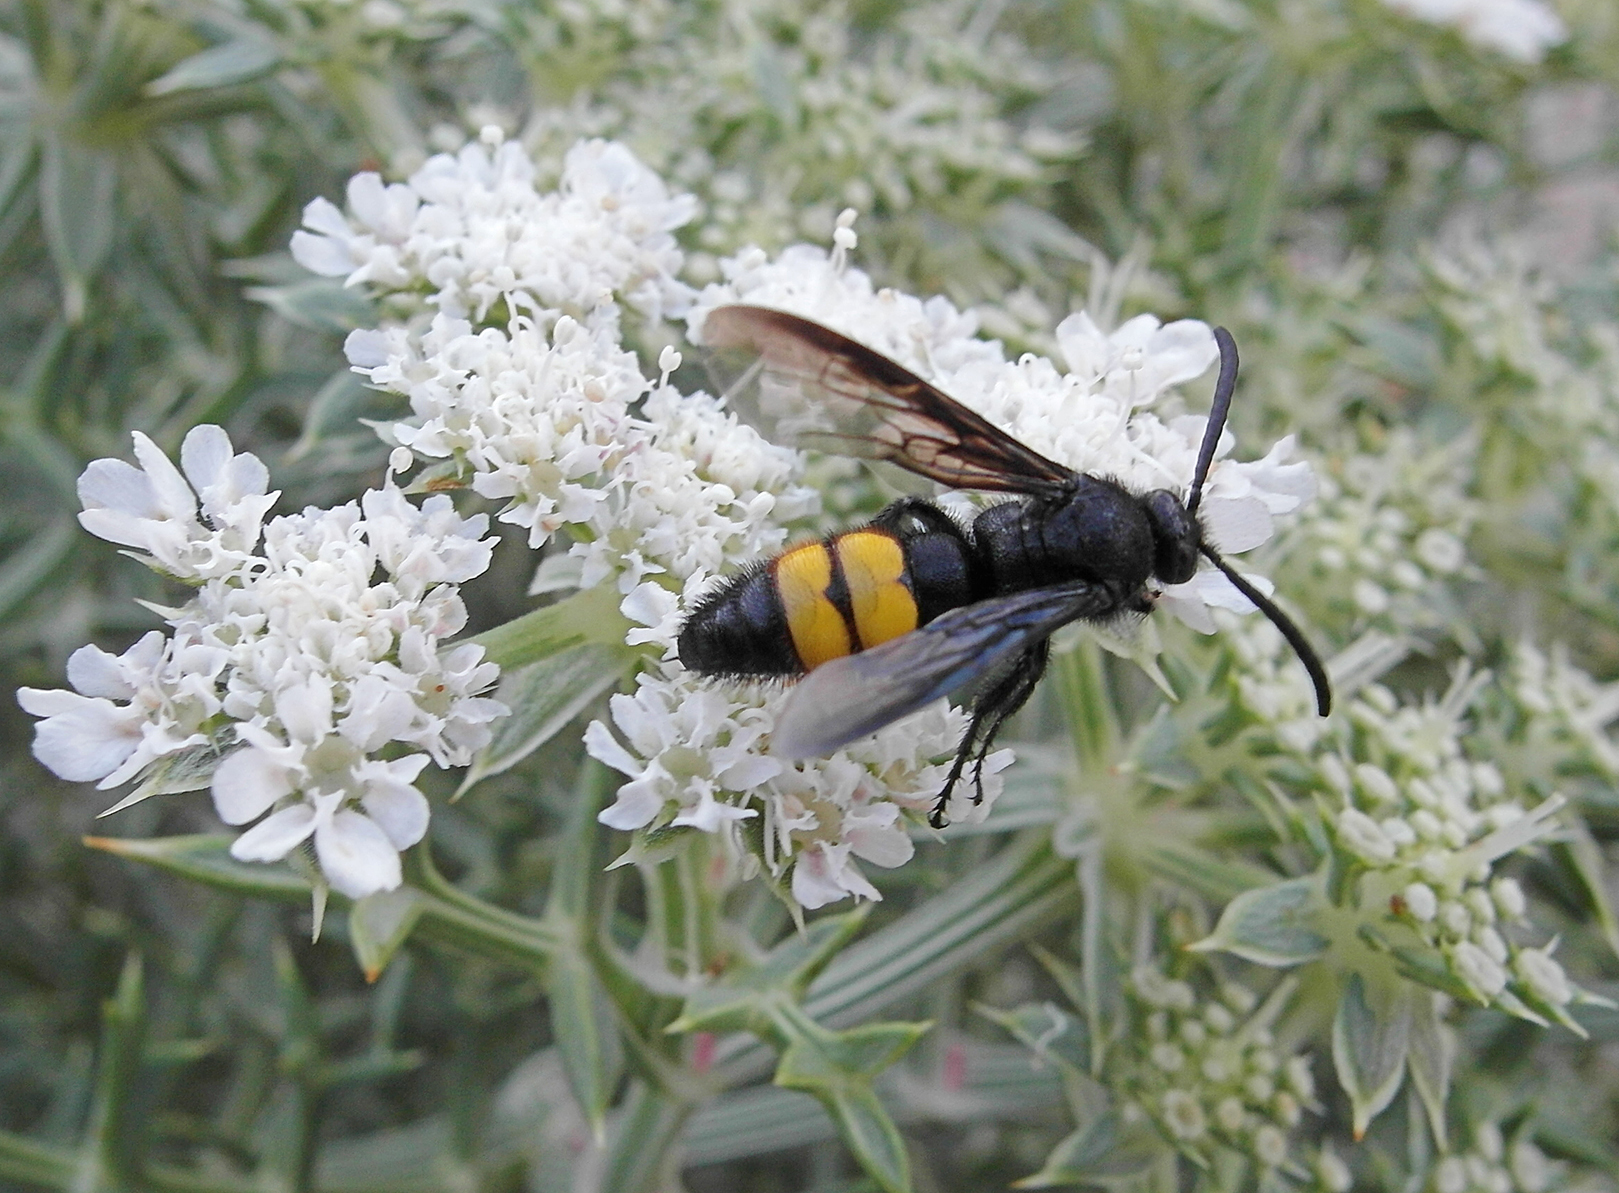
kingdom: Animalia
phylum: Arthropoda
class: Insecta
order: Hymenoptera
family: Scoliidae
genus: Scolia
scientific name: Scolia hirta
